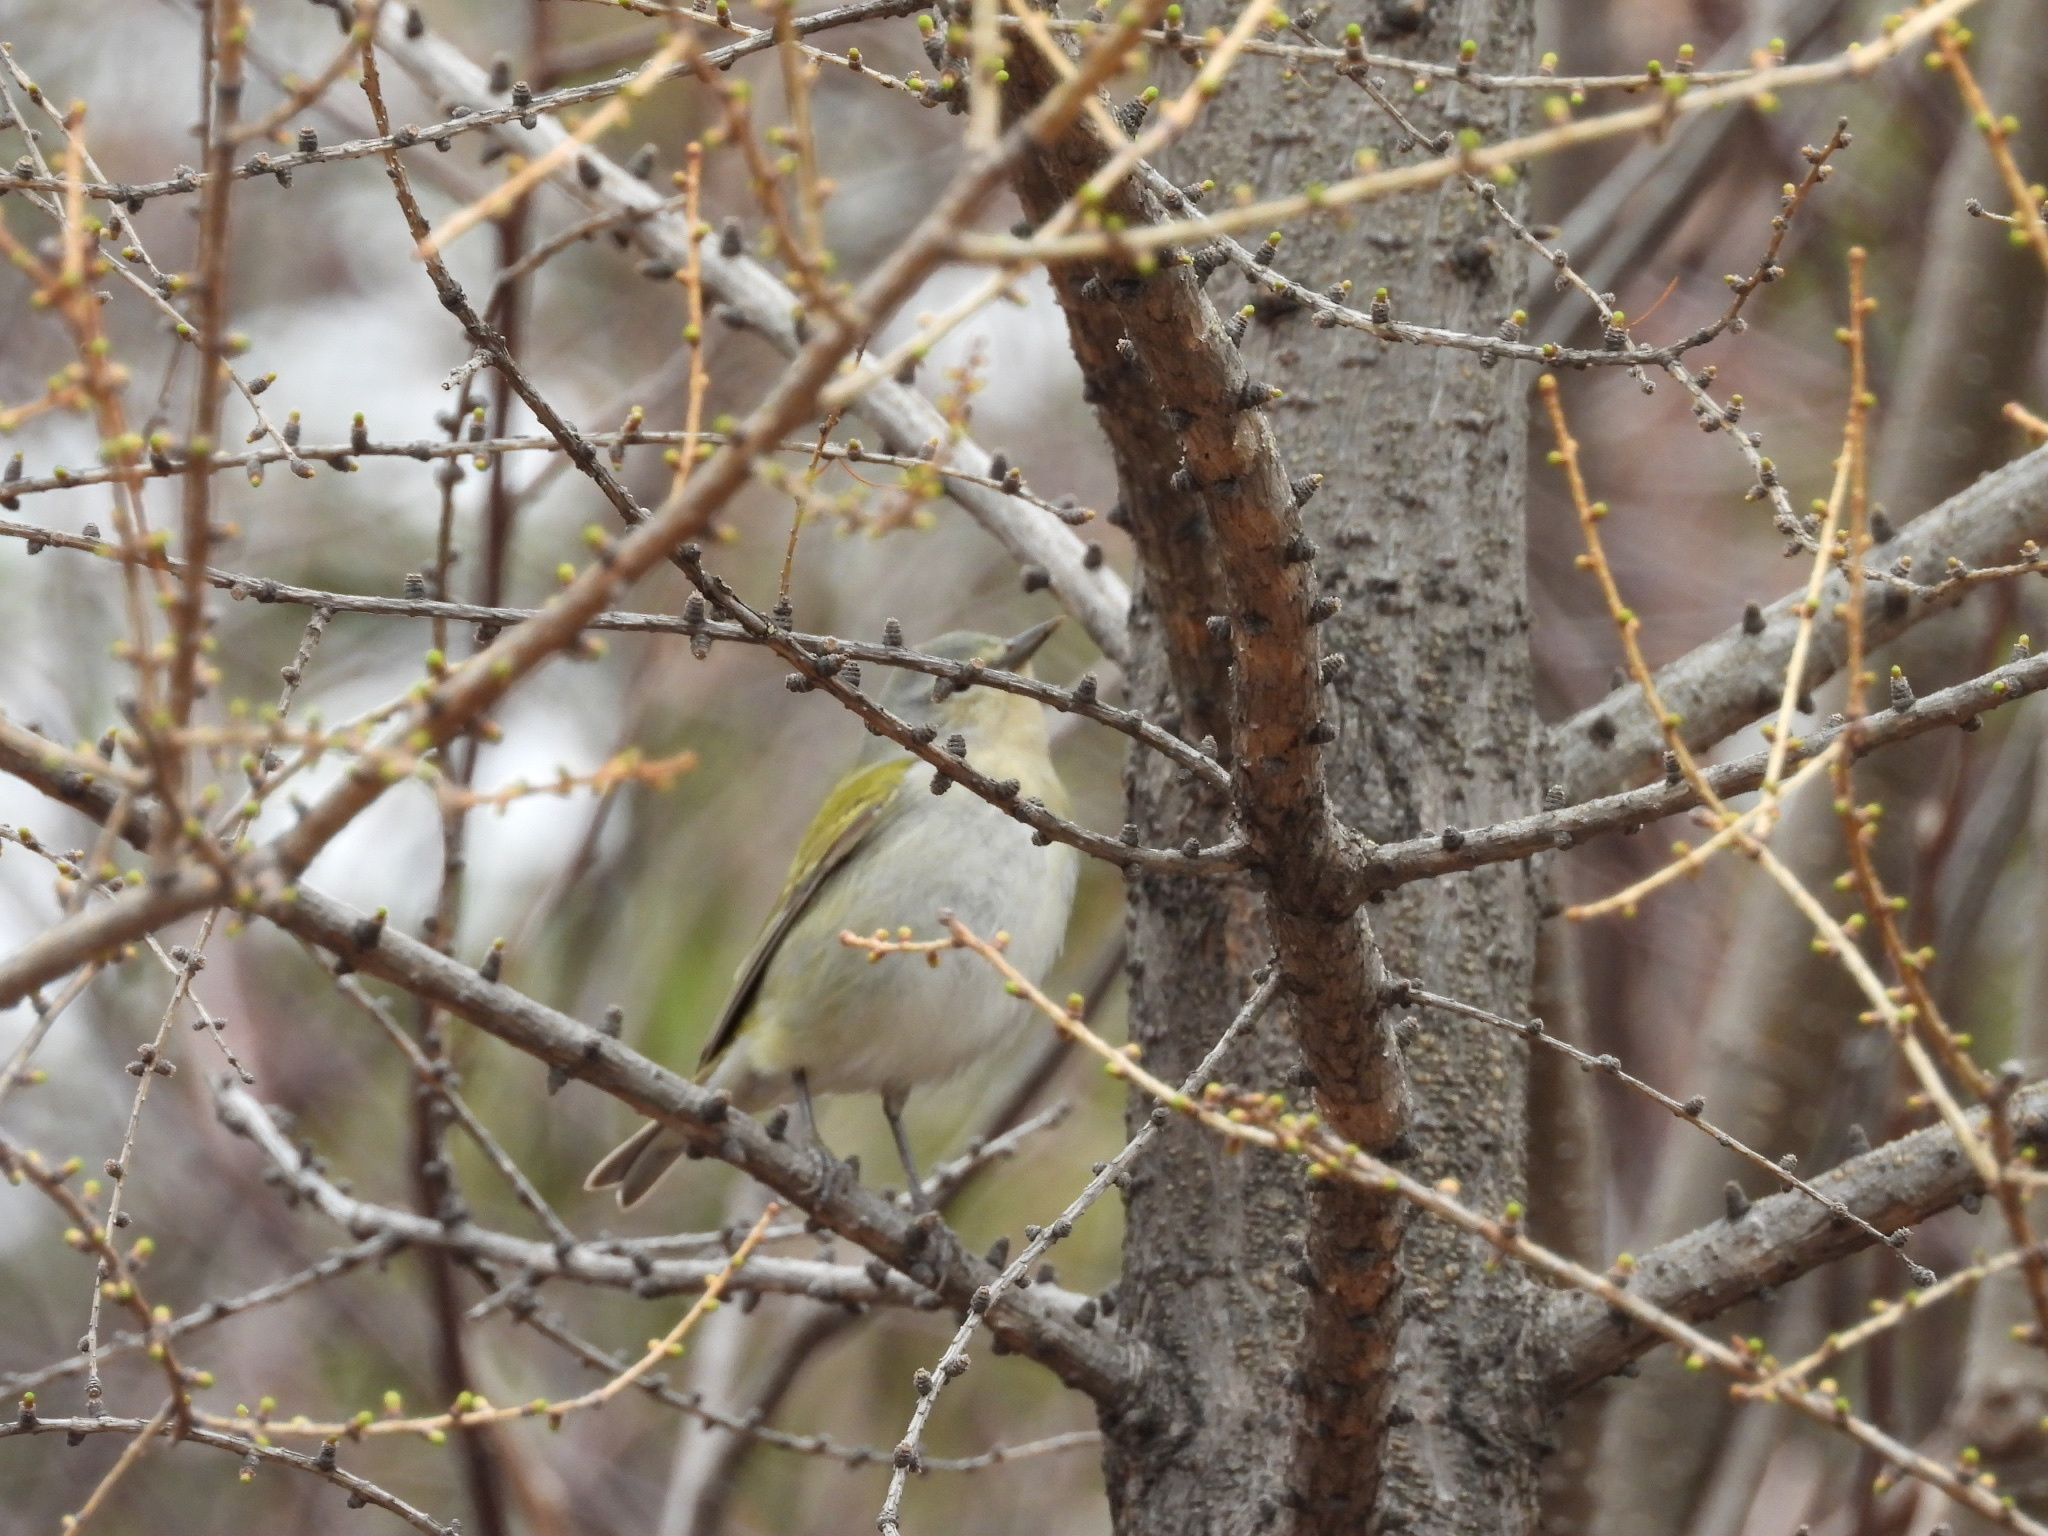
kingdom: Animalia
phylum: Chordata
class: Aves
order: Passeriformes
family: Parulidae
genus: Leiothlypis
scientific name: Leiothlypis peregrina
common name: Tennessee warbler
